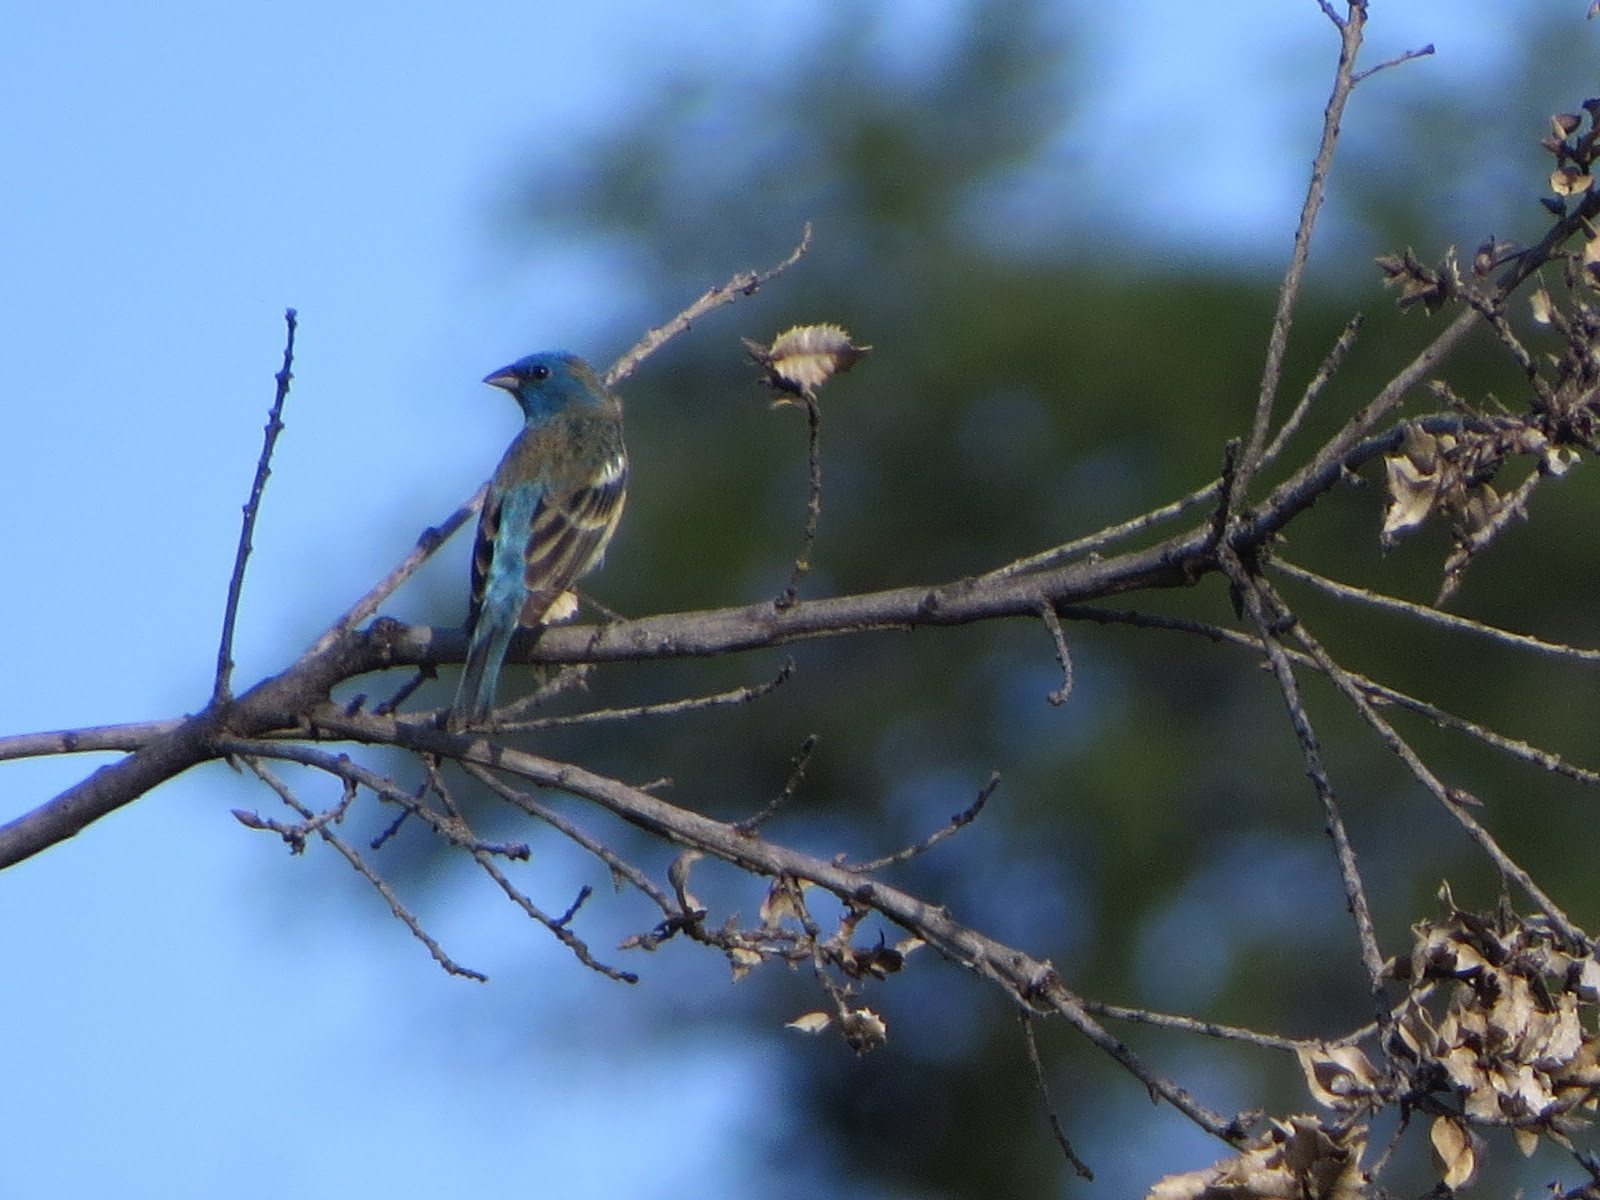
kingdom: Animalia
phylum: Chordata
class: Aves
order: Passeriformes
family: Cardinalidae
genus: Passerina
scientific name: Passerina amoena
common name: Lazuli bunting
